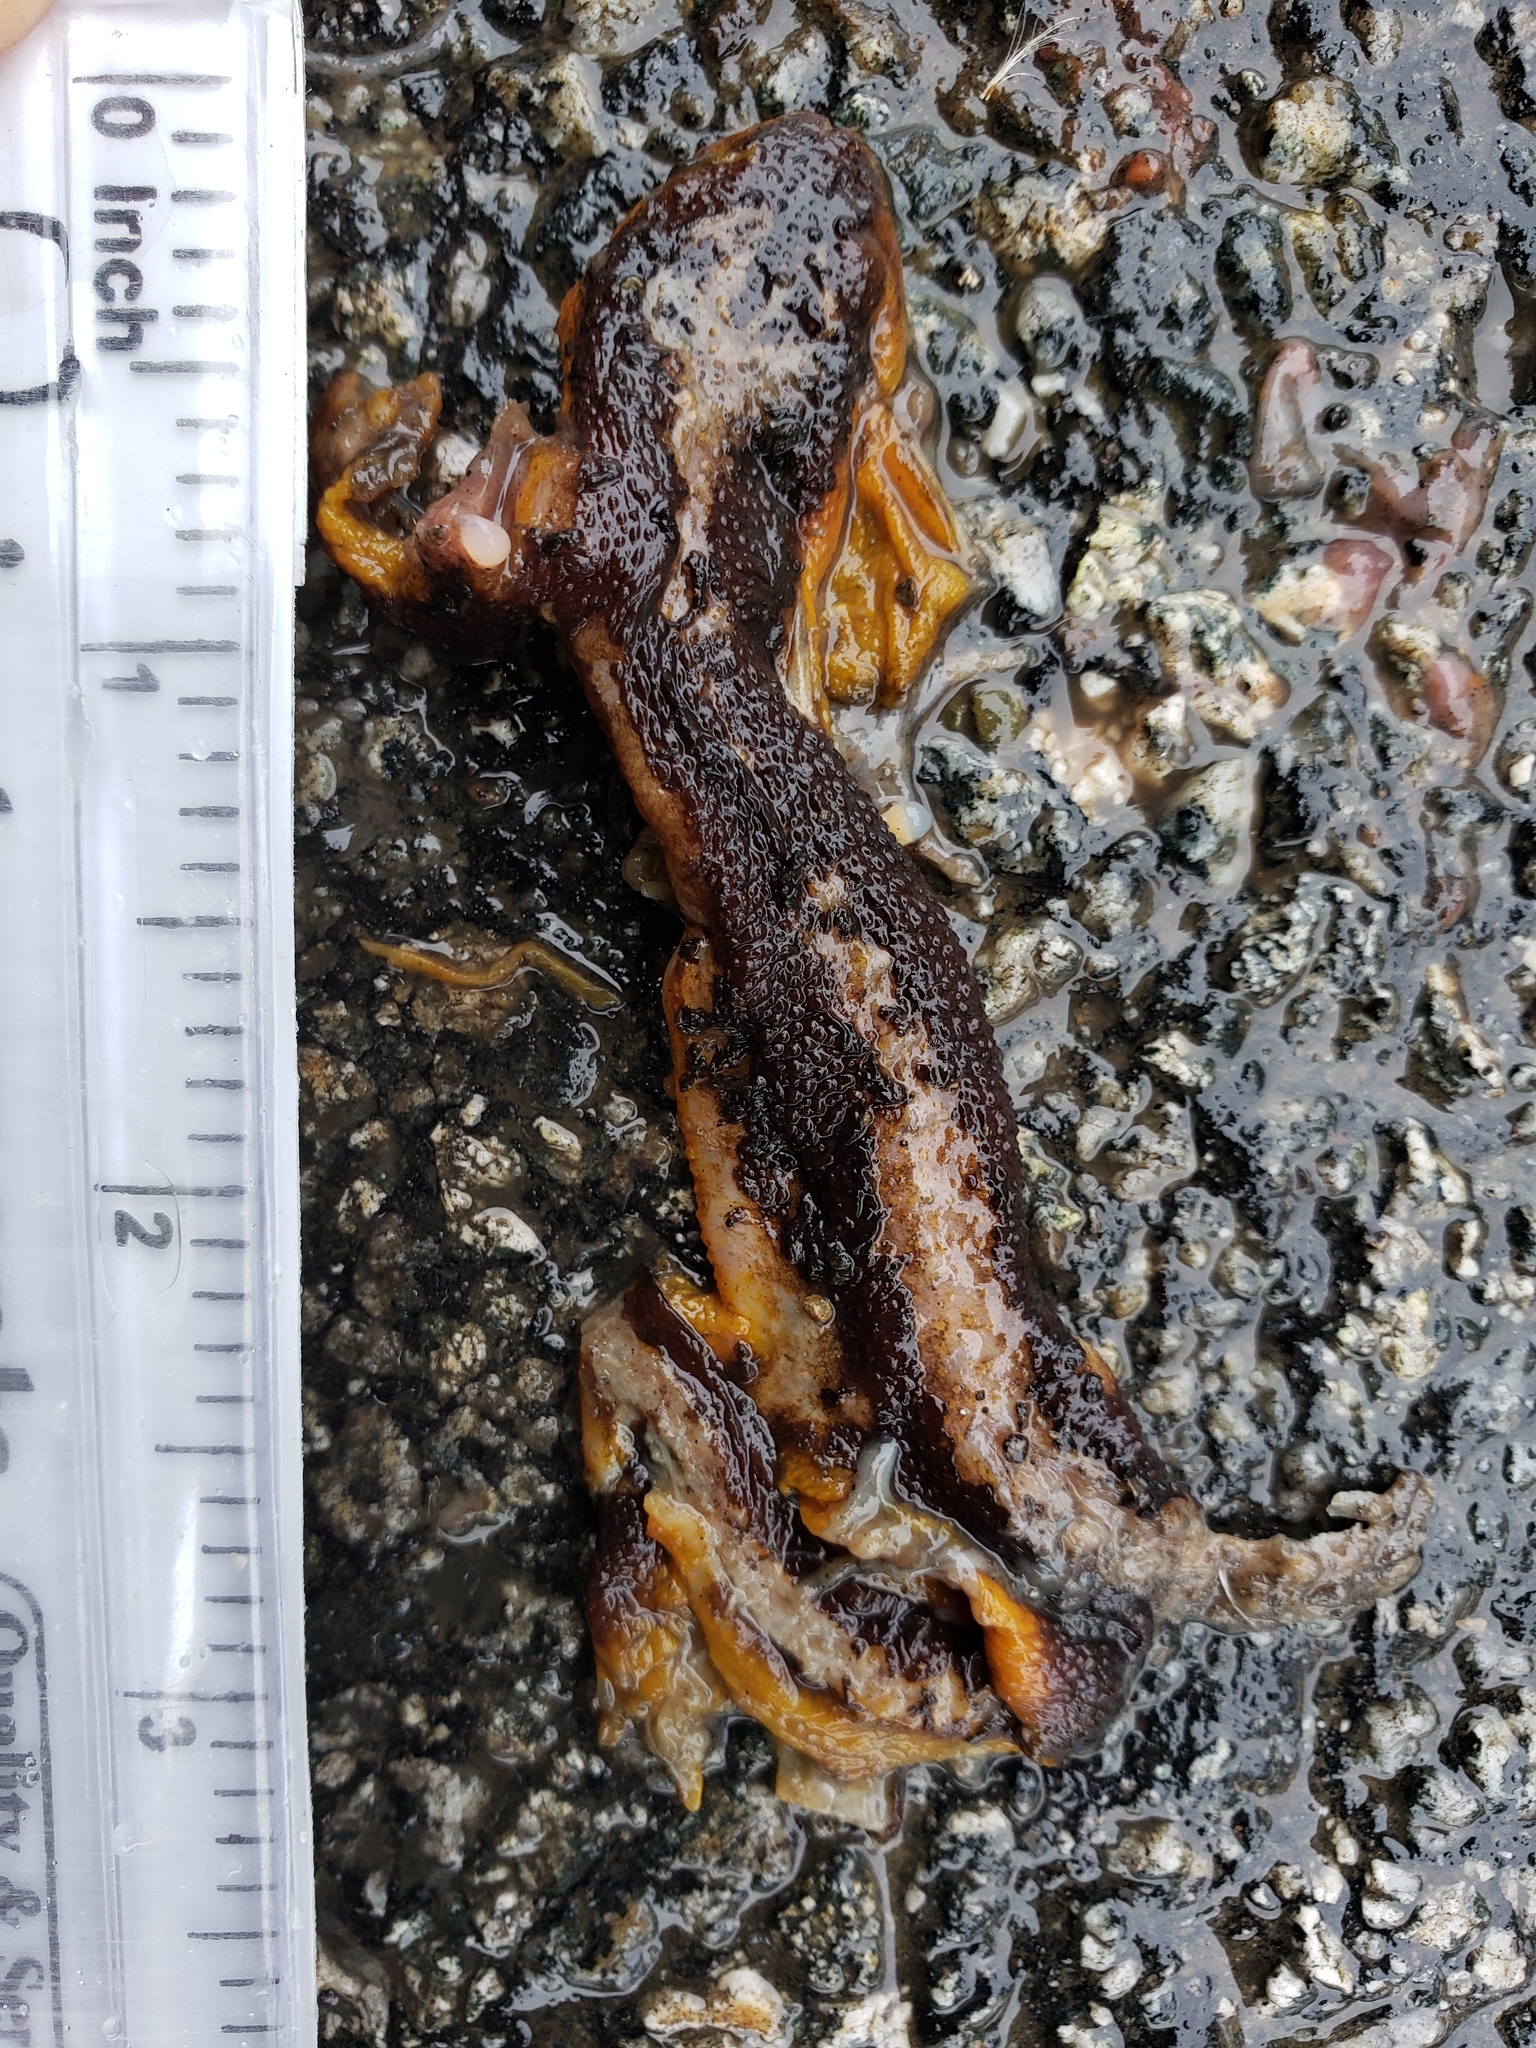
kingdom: Animalia
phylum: Chordata
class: Amphibia
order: Caudata
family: Salamandridae
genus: Taricha
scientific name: Taricha
